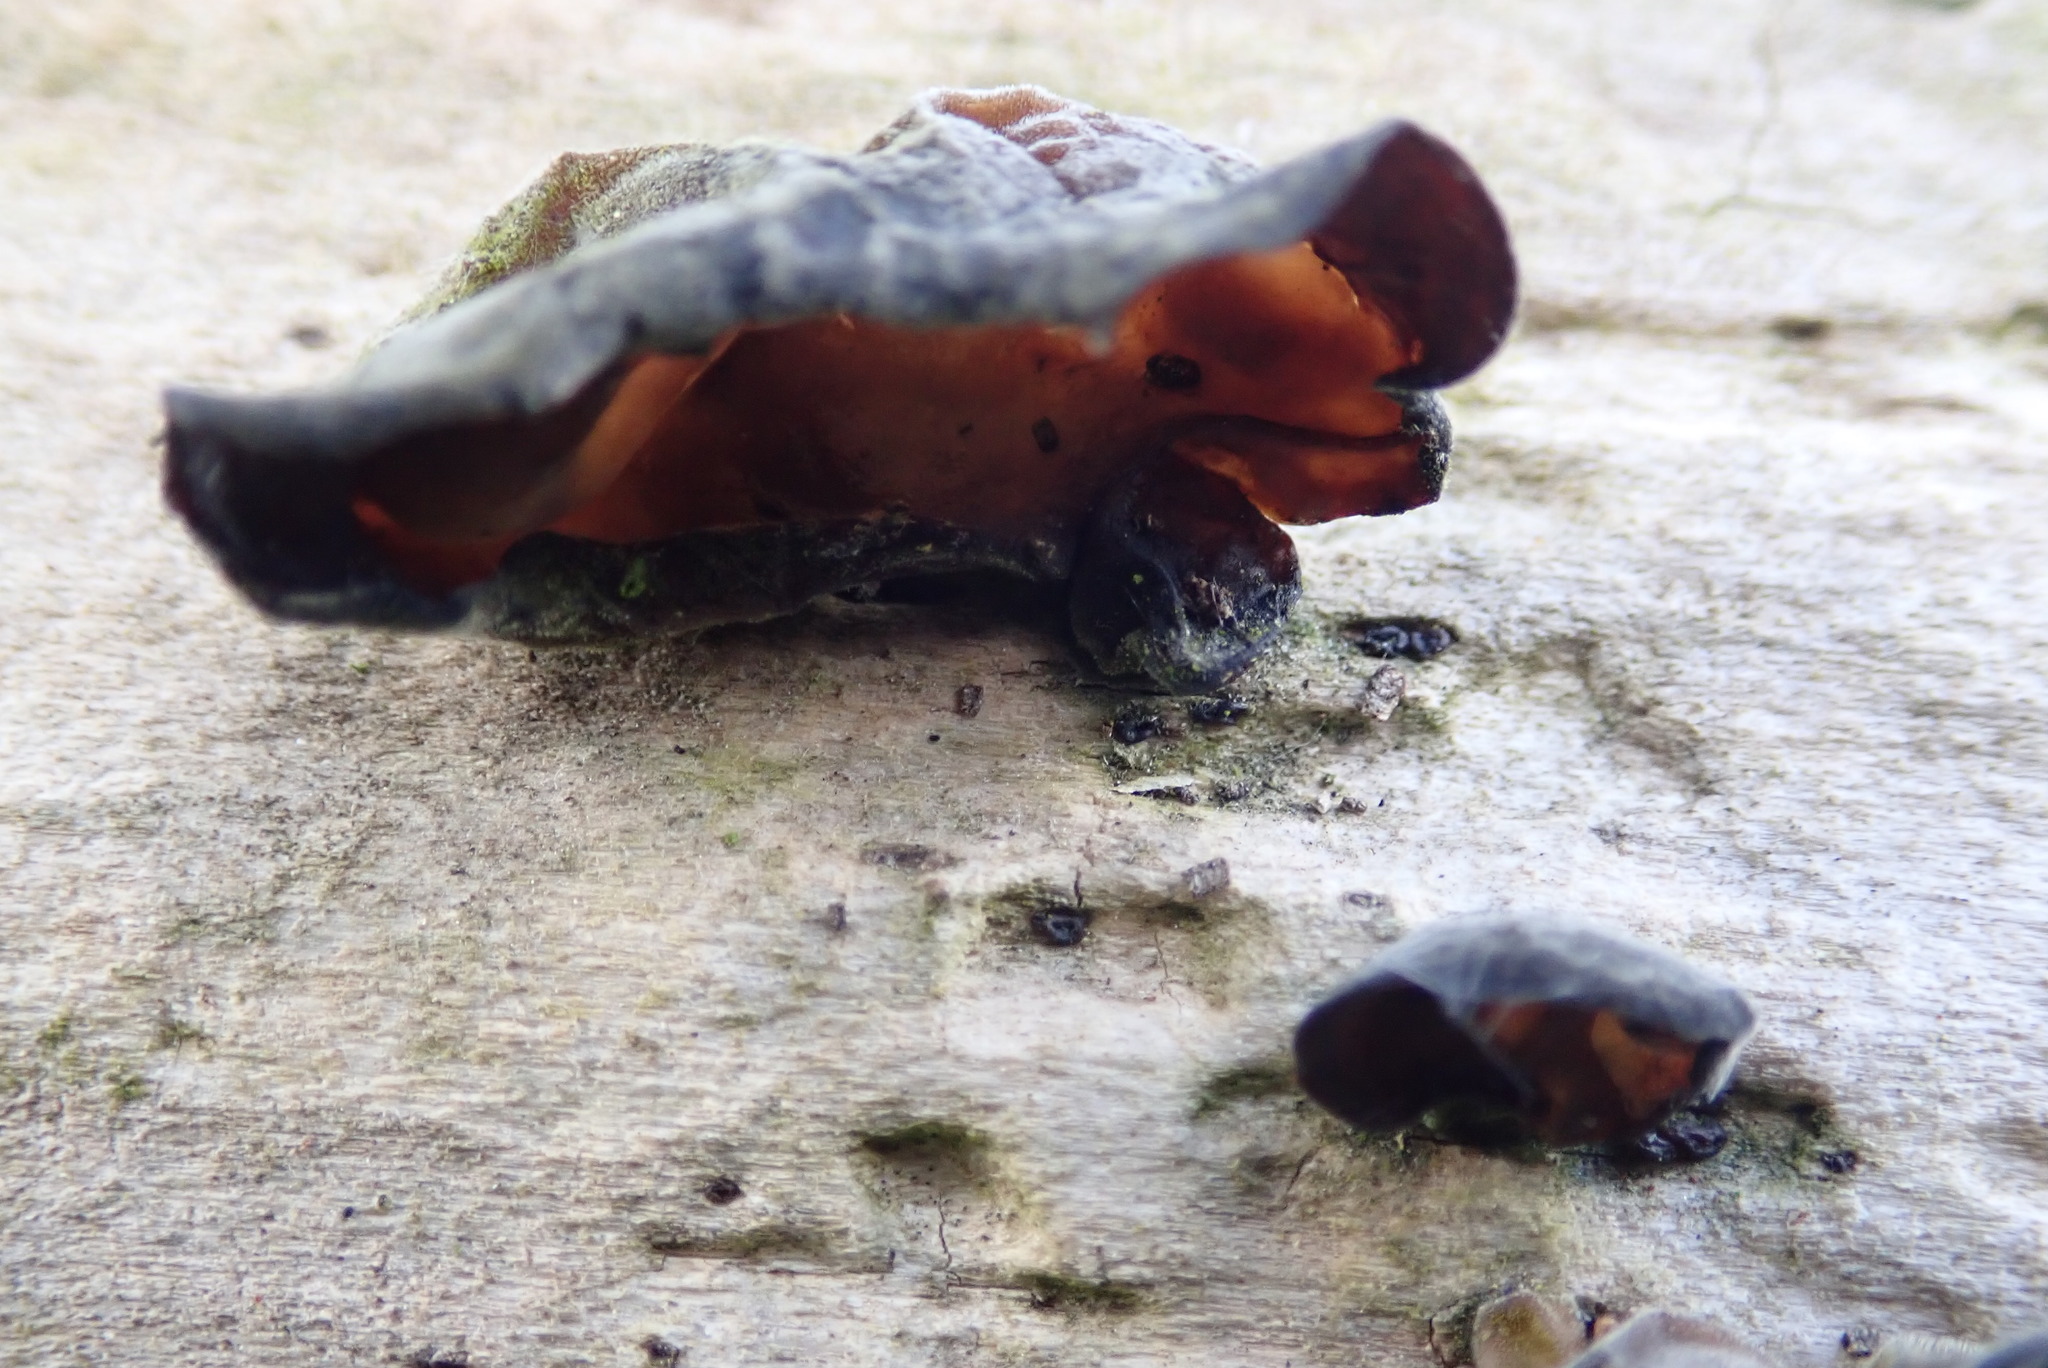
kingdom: Fungi
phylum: Basidiomycota
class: Agaricomycetes
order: Auriculariales
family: Auriculariaceae
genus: Auricularia
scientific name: Auricularia auricula-judae
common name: Jelly ear
